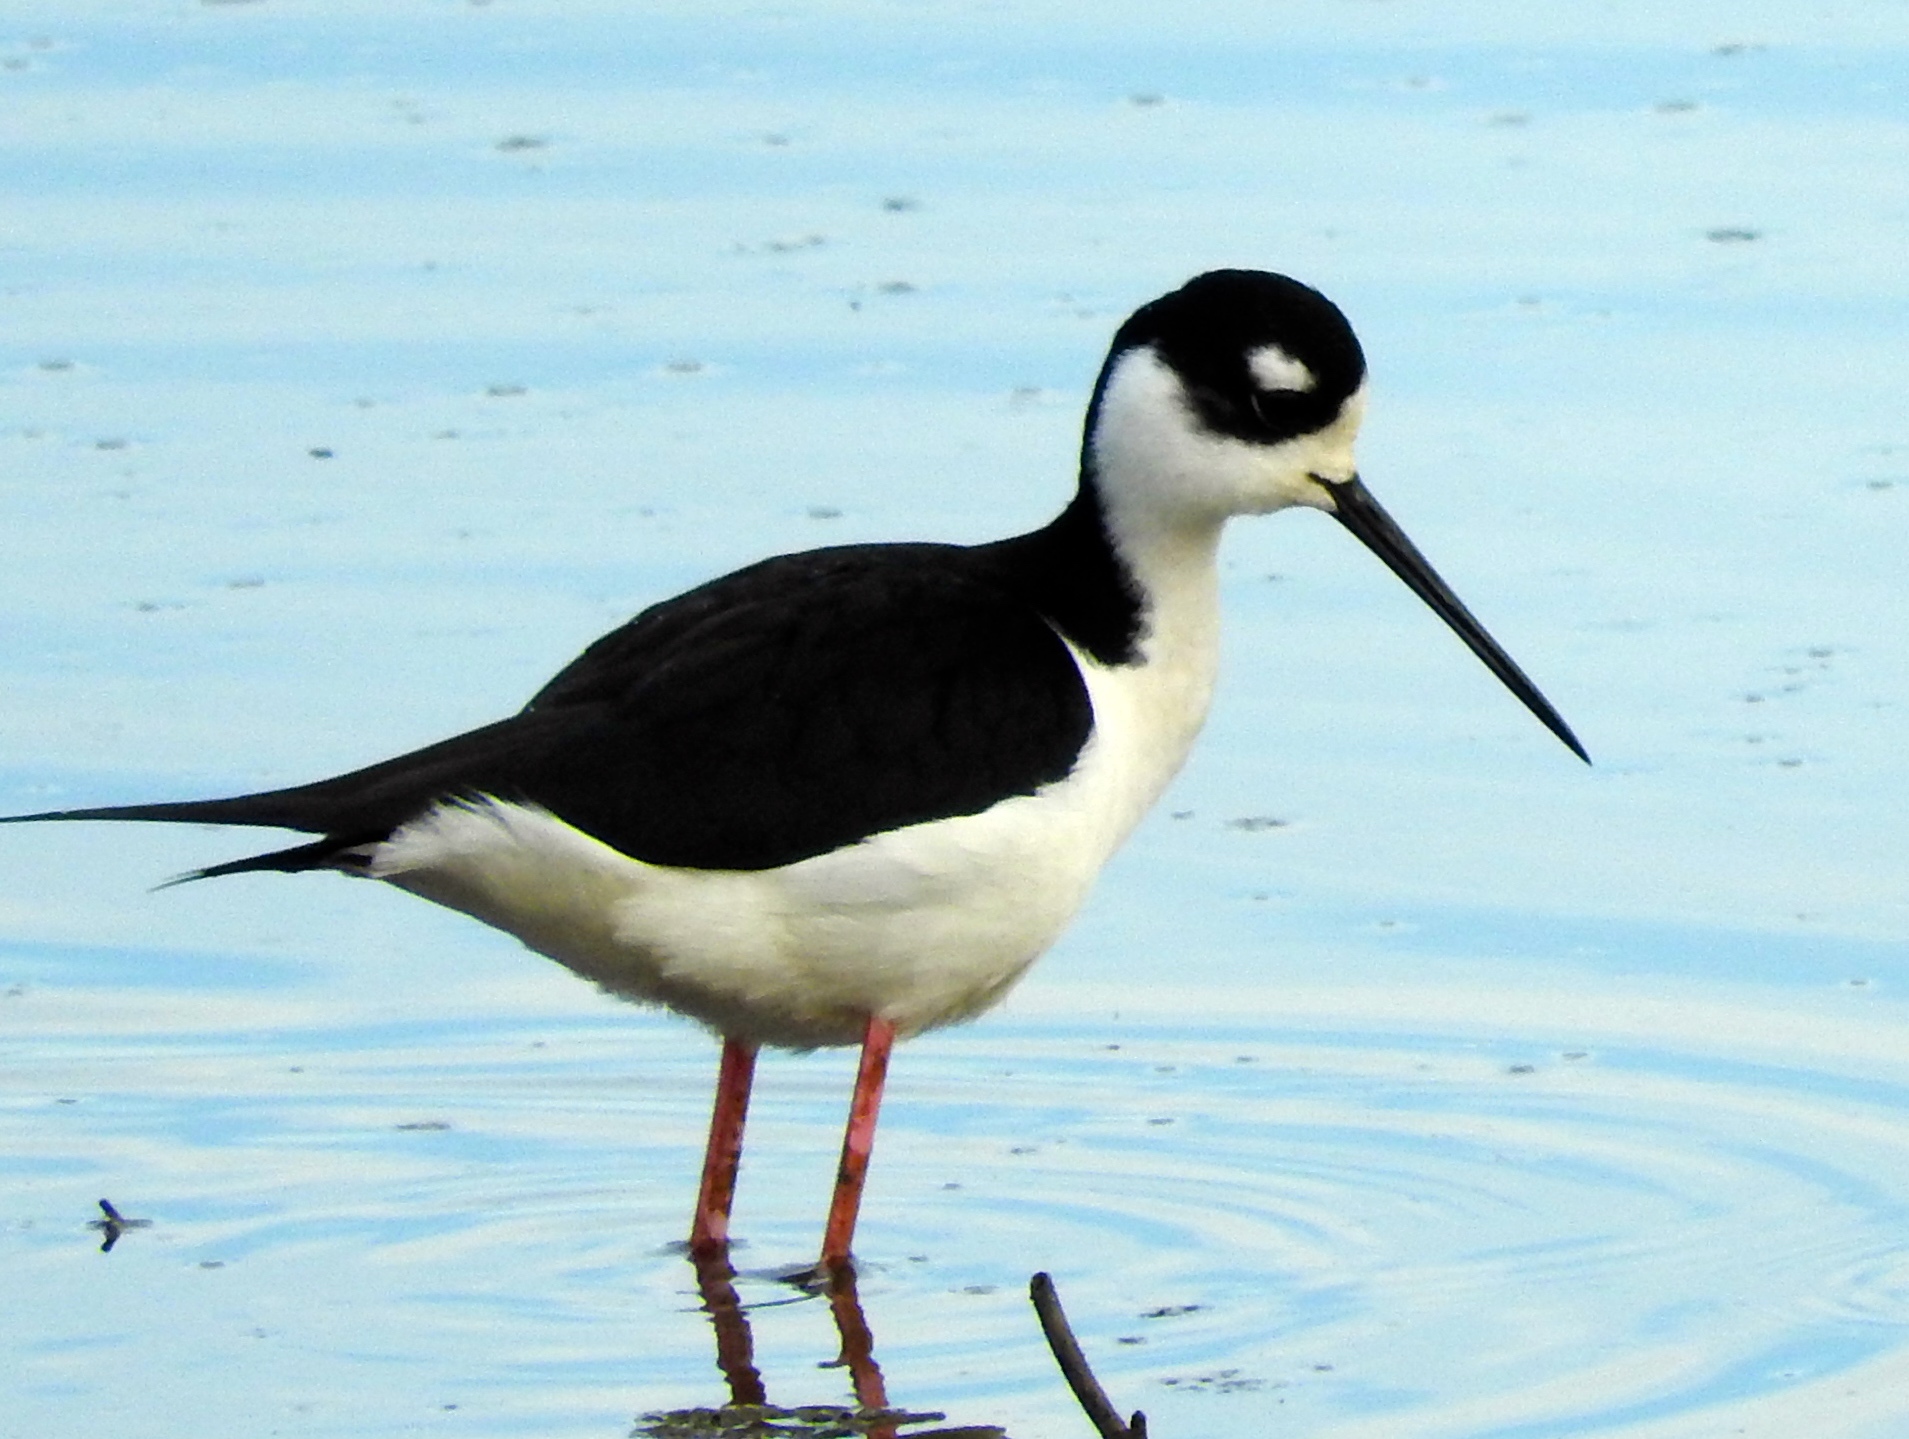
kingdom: Animalia
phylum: Chordata
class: Aves
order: Charadriiformes
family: Recurvirostridae
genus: Himantopus
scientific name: Himantopus mexicanus
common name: Black-necked stilt
